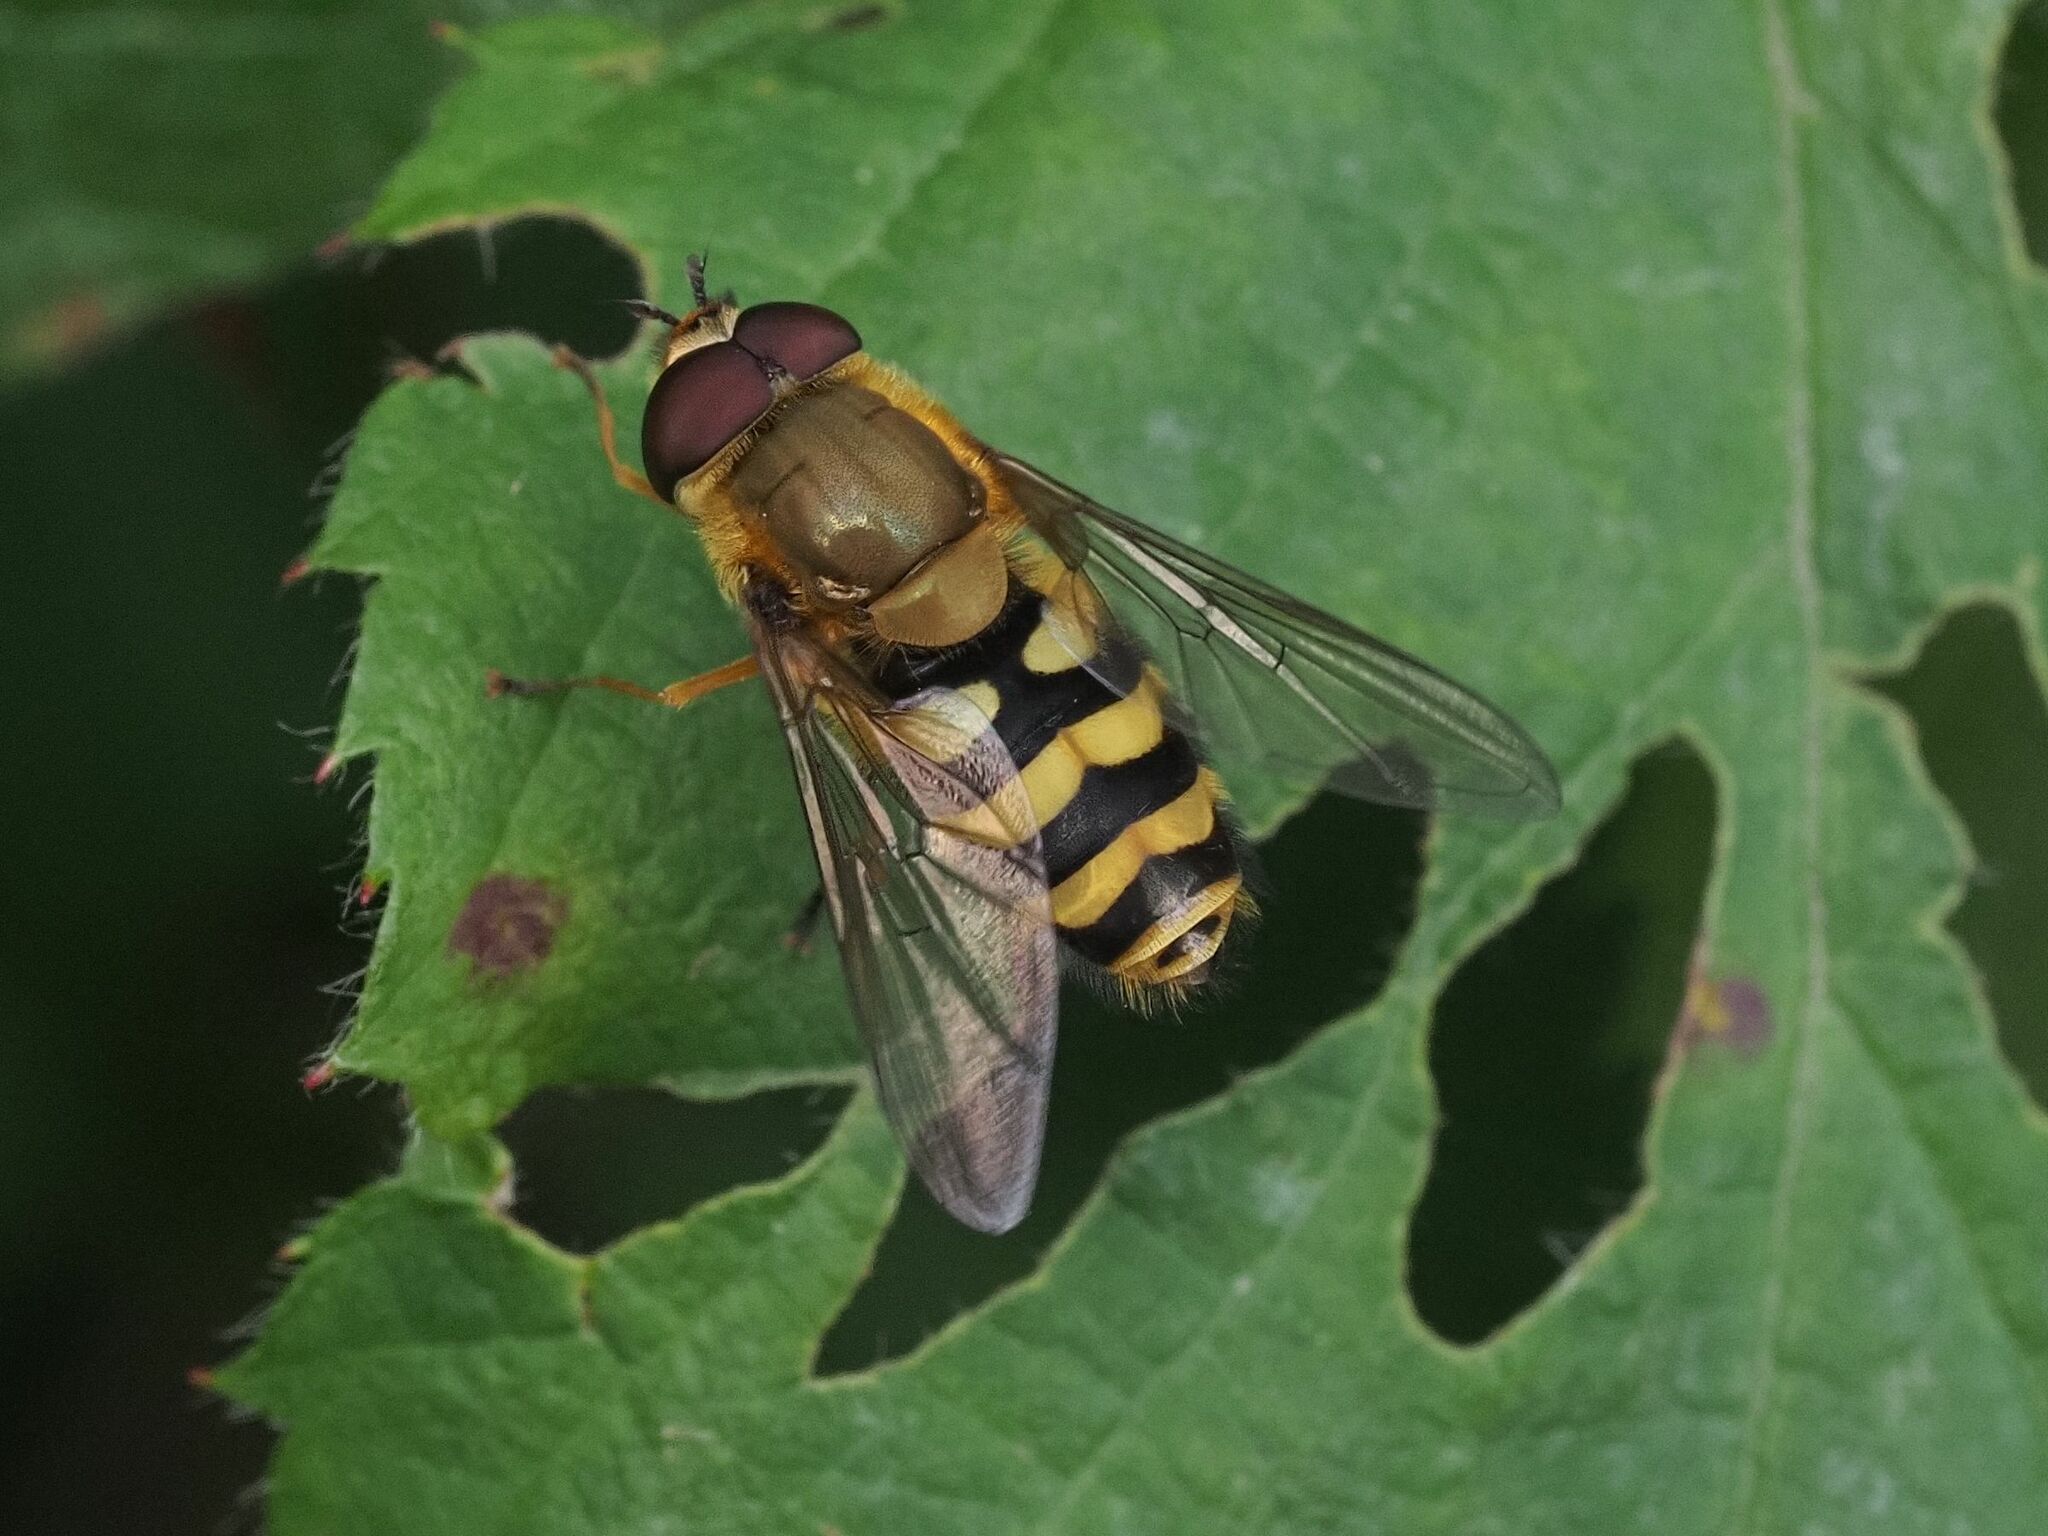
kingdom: Animalia
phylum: Arthropoda
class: Insecta
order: Diptera
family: Syrphidae
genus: Syrphus
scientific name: Syrphus
